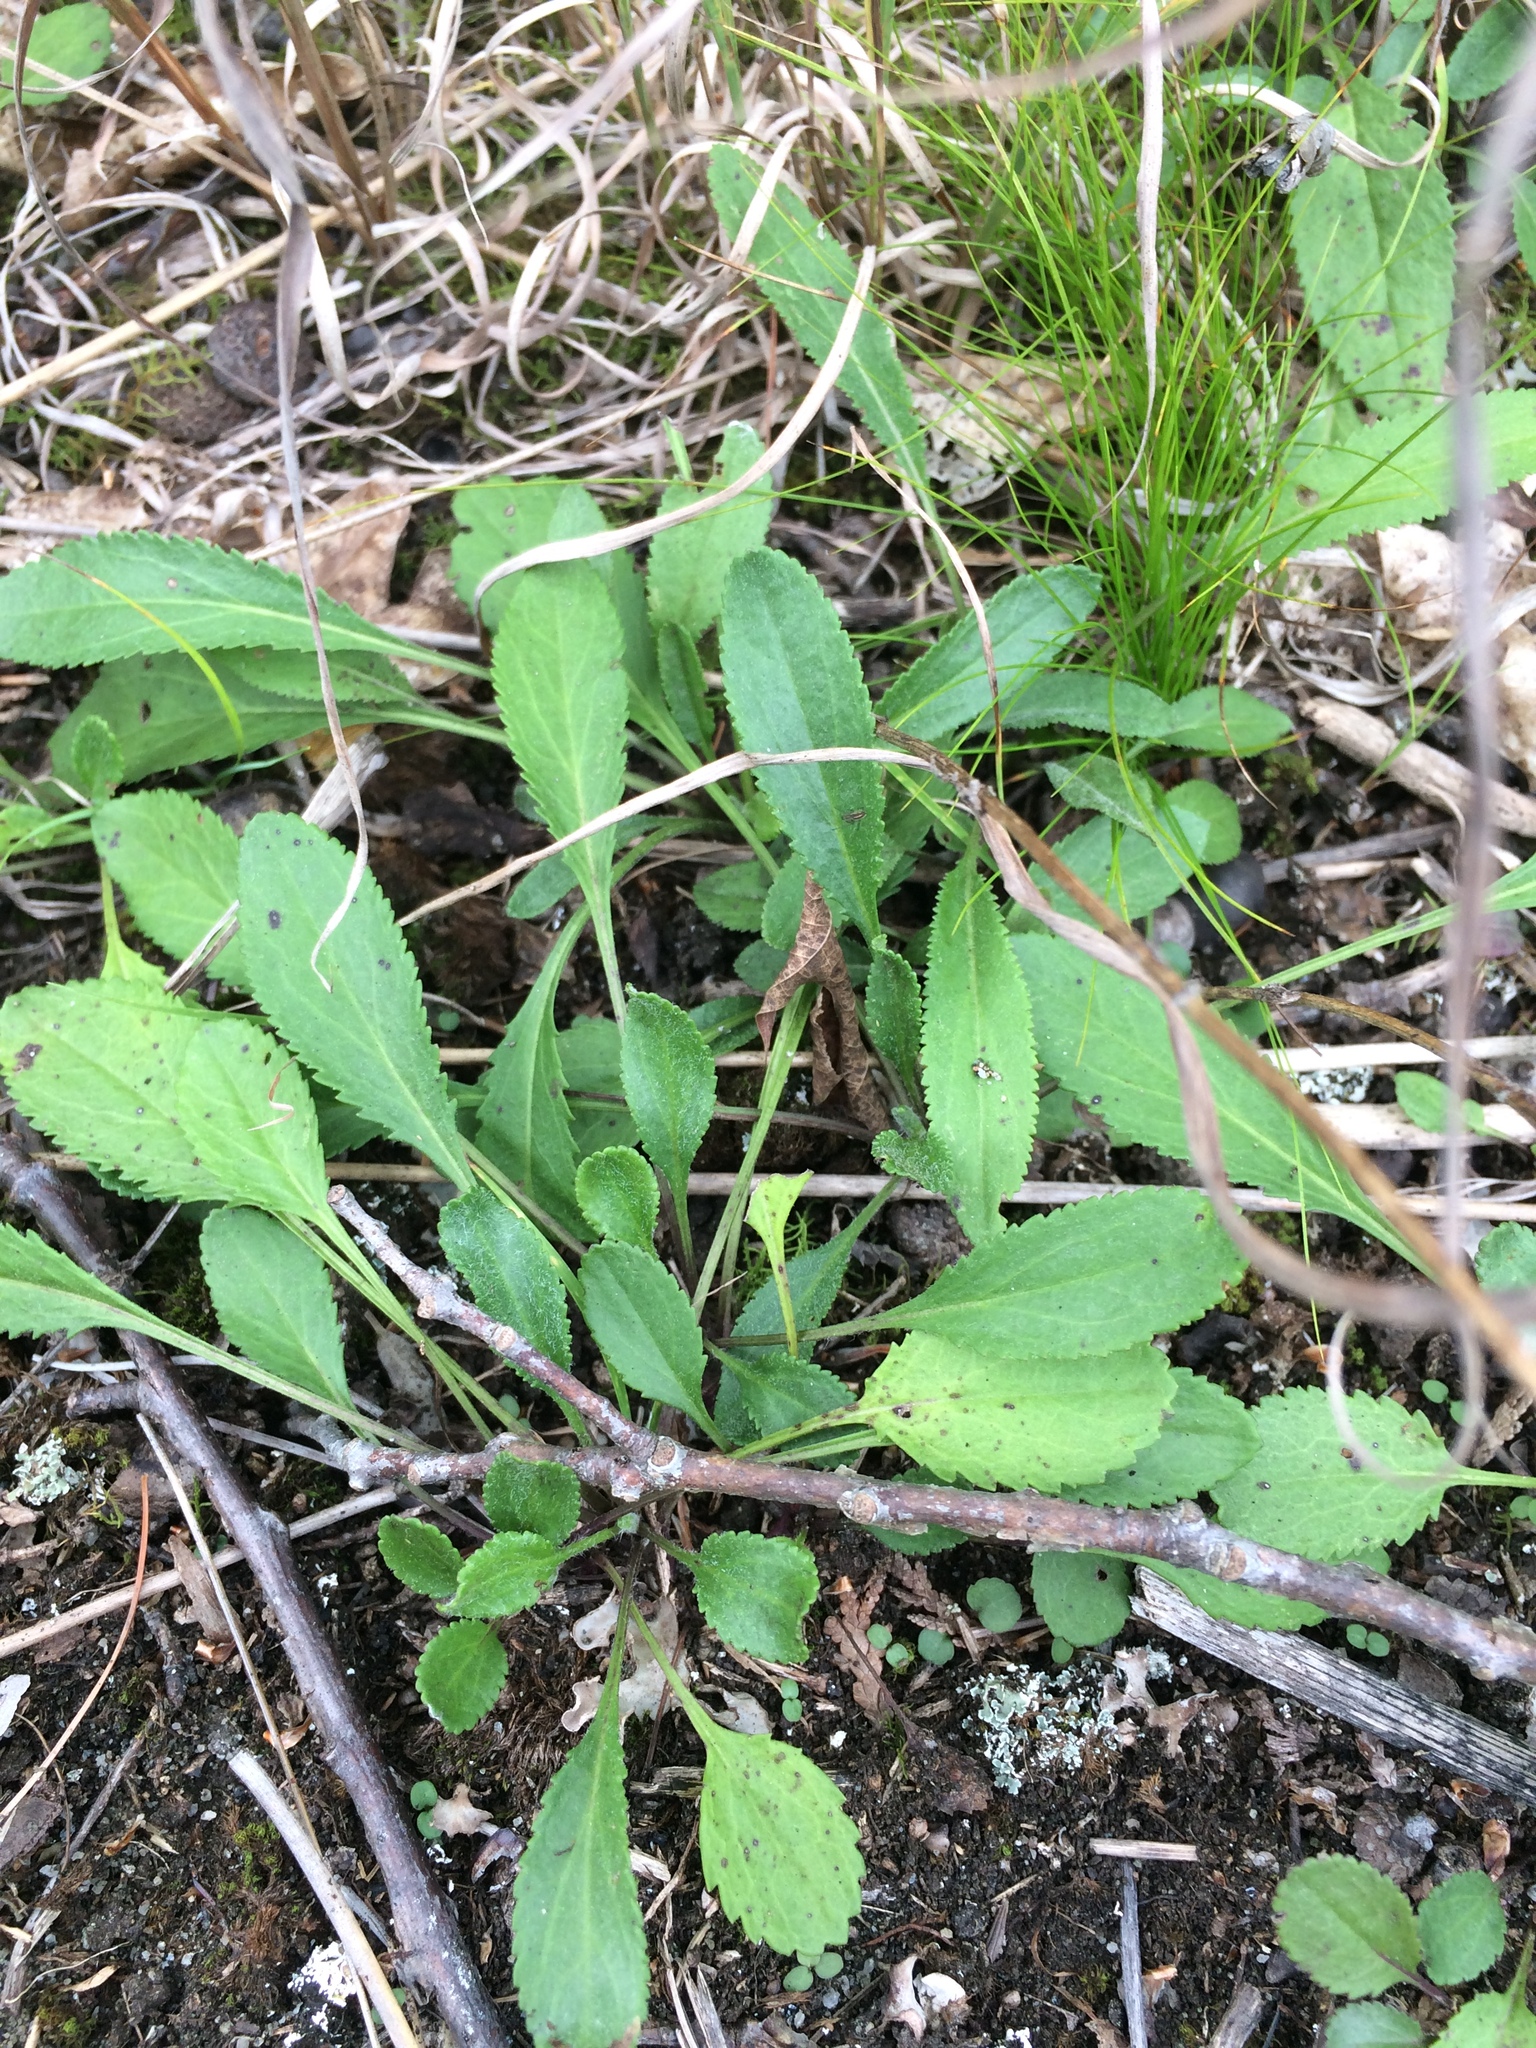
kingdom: Plantae
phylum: Tracheophyta
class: Magnoliopsida
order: Asterales
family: Asteraceae
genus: Packera
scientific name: Packera paupercula
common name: Balsam groundsel
